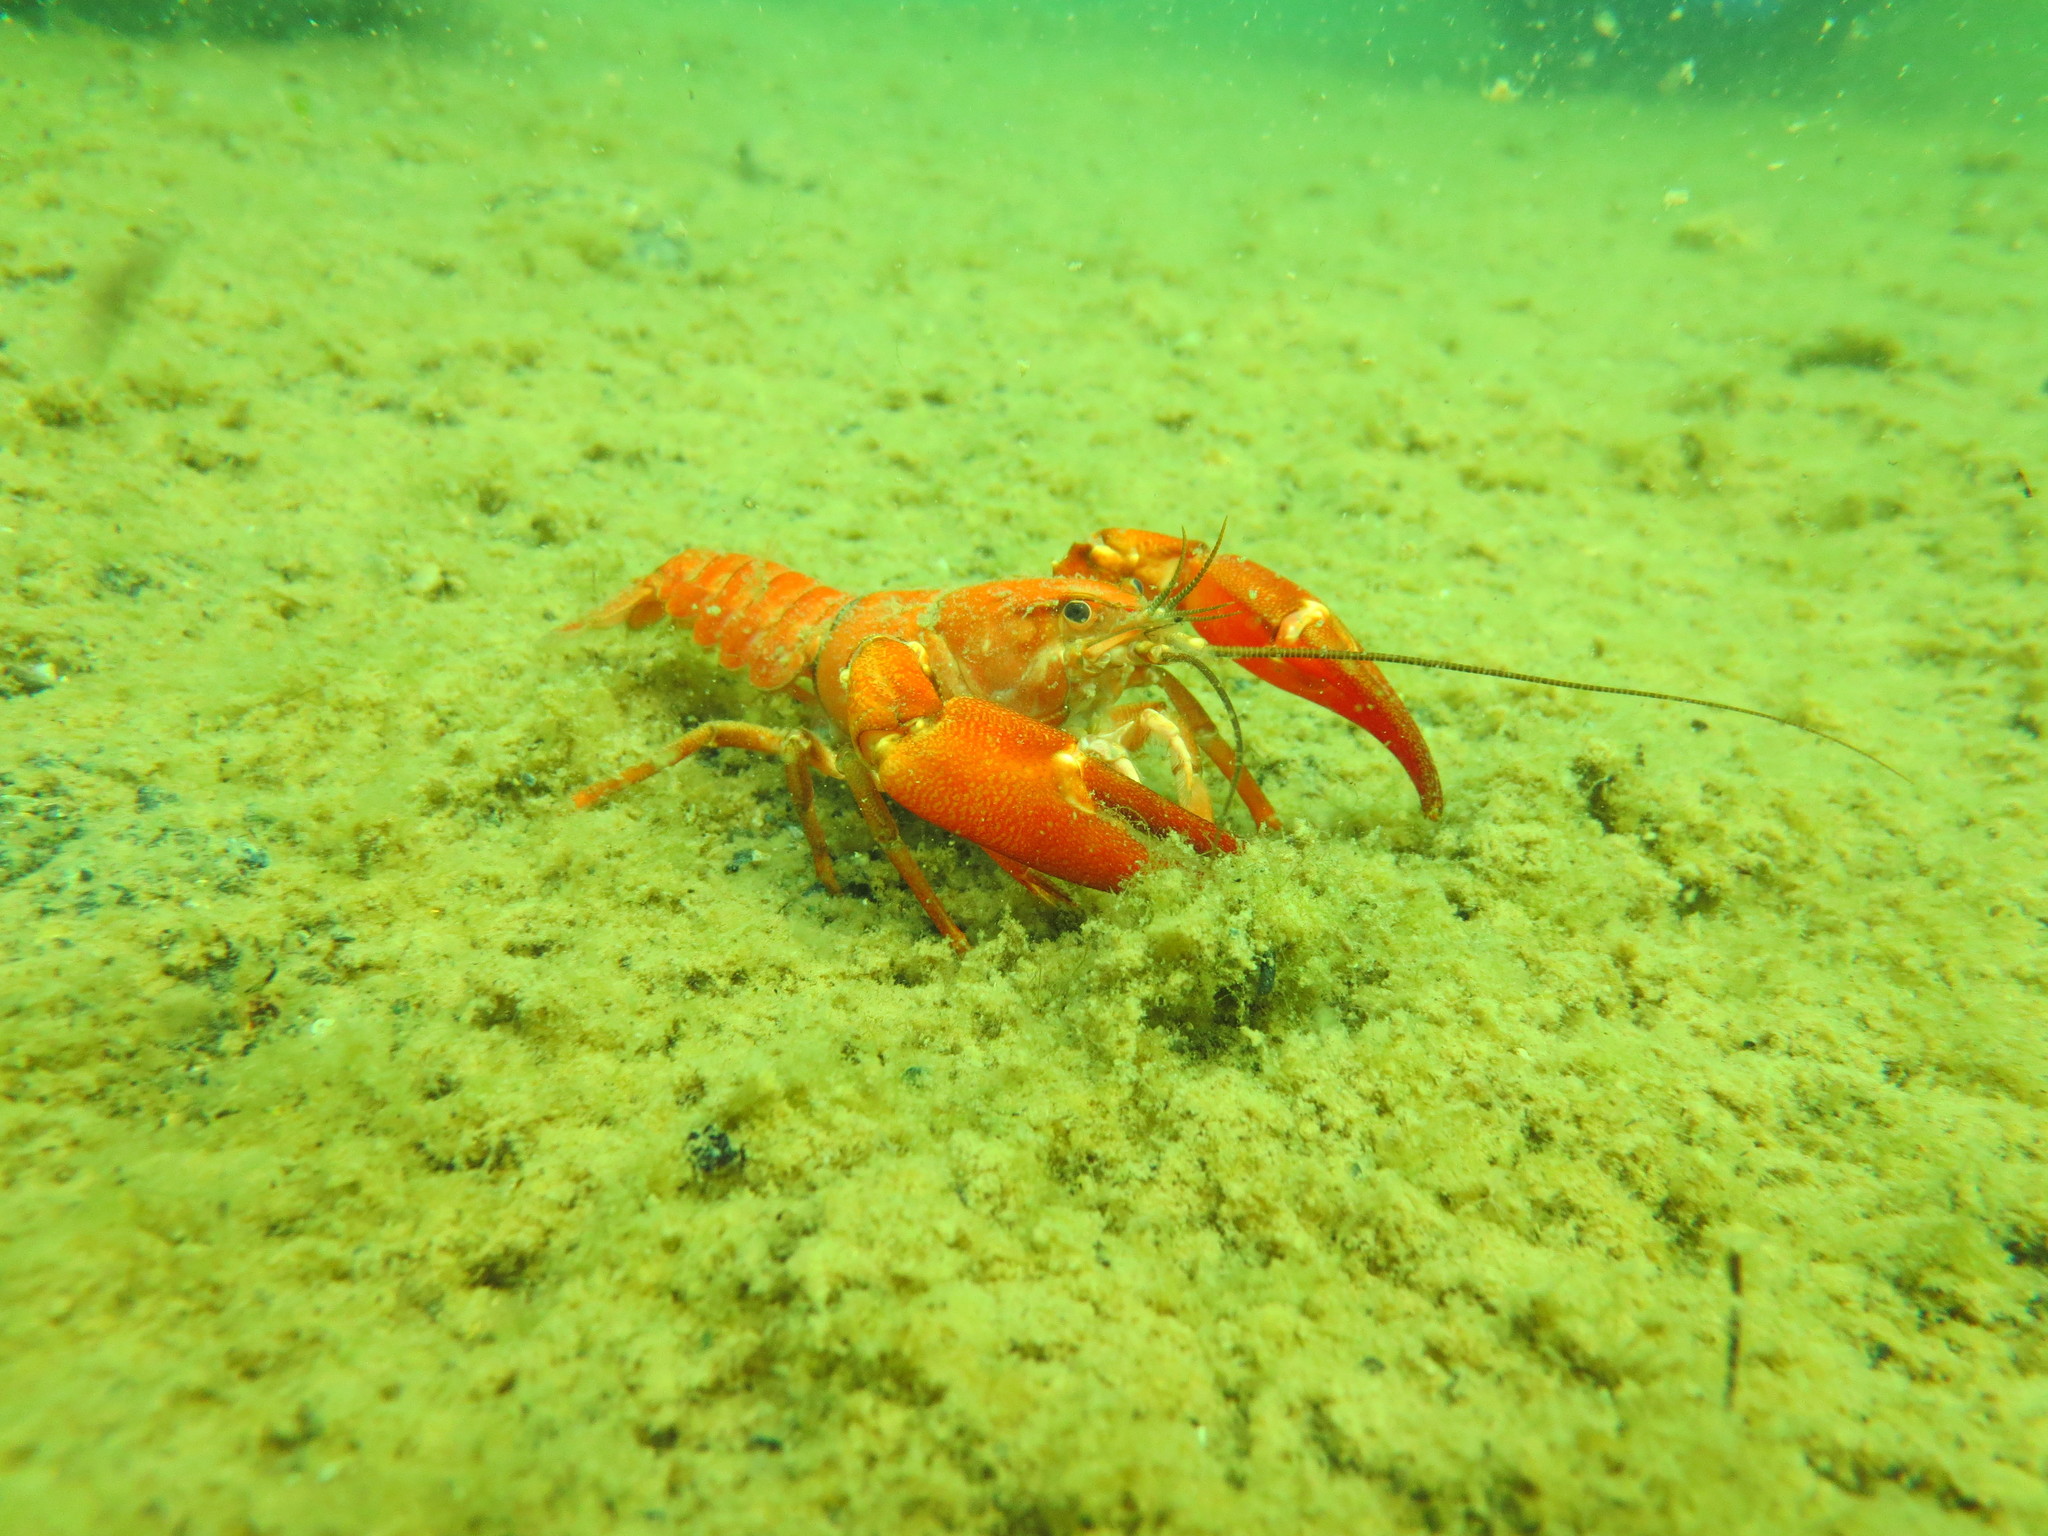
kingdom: Animalia
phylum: Arthropoda
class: Malacostraca
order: Decapoda
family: Astacidae
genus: Pacifastacus
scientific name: Pacifastacus leniusculus
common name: Signal crayfish
